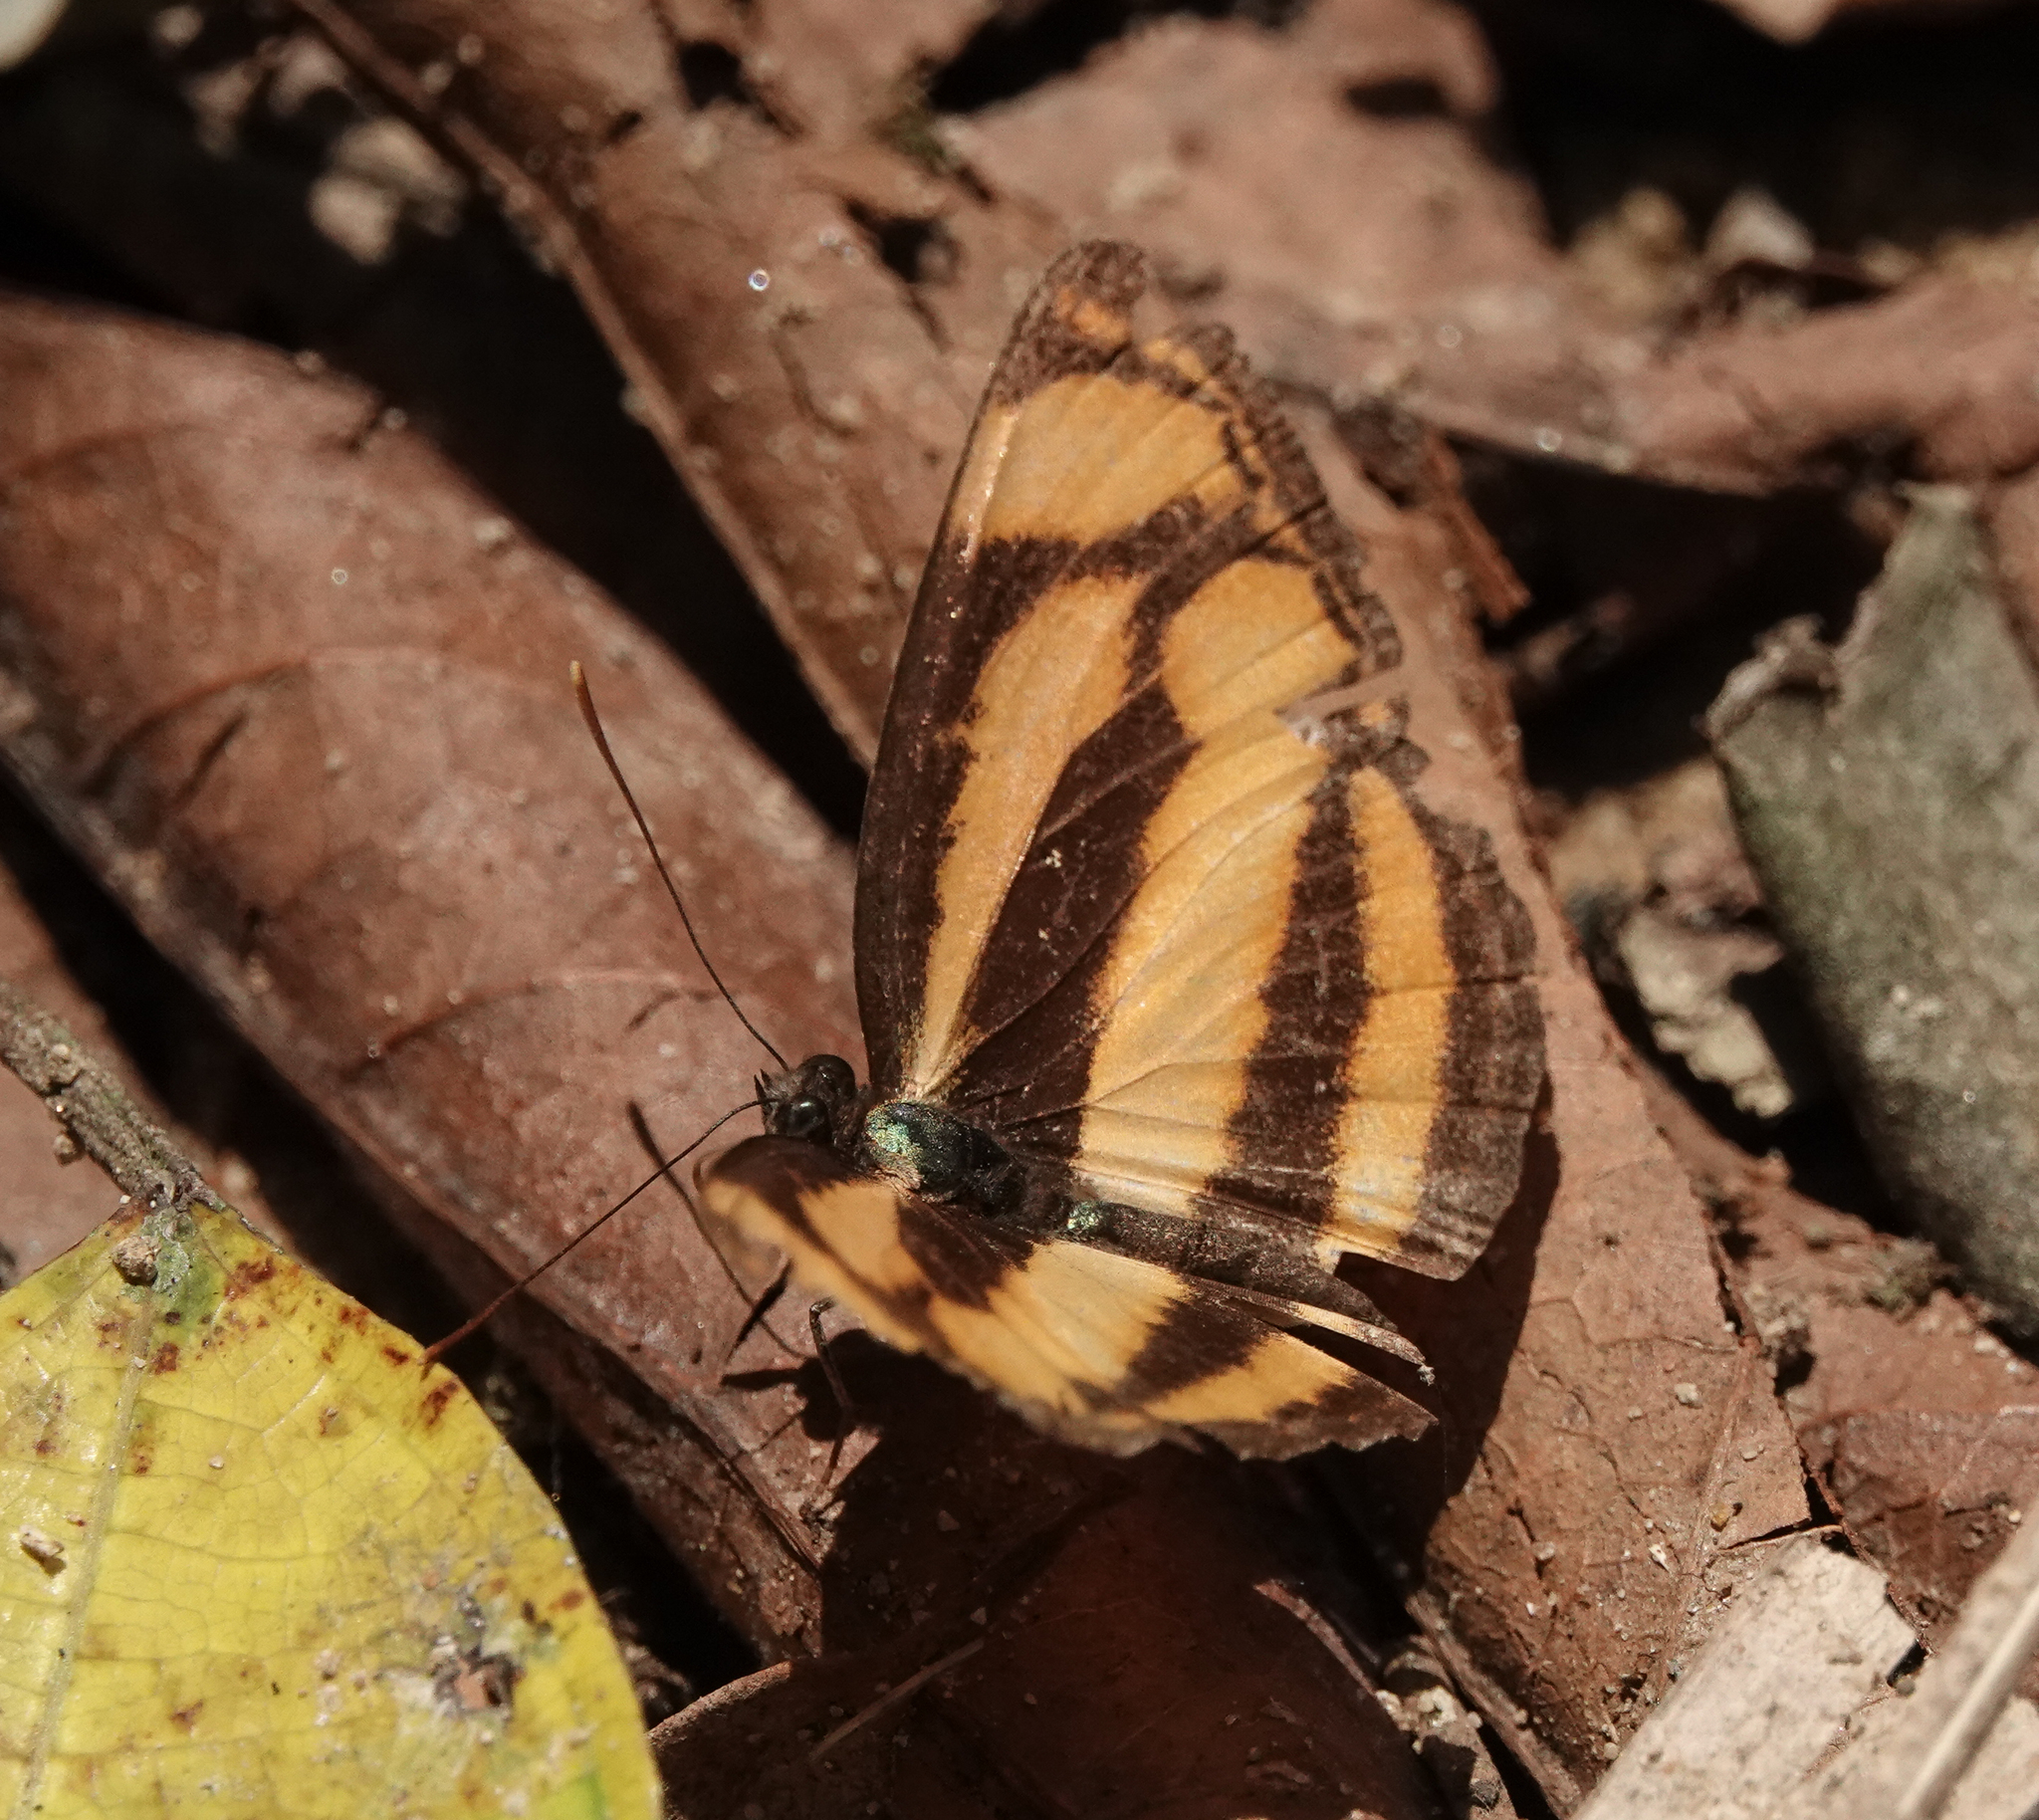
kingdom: Animalia
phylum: Arthropoda
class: Insecta
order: Lepidoptera
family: Nymphalidae
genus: Lasippa
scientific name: Lasippa
